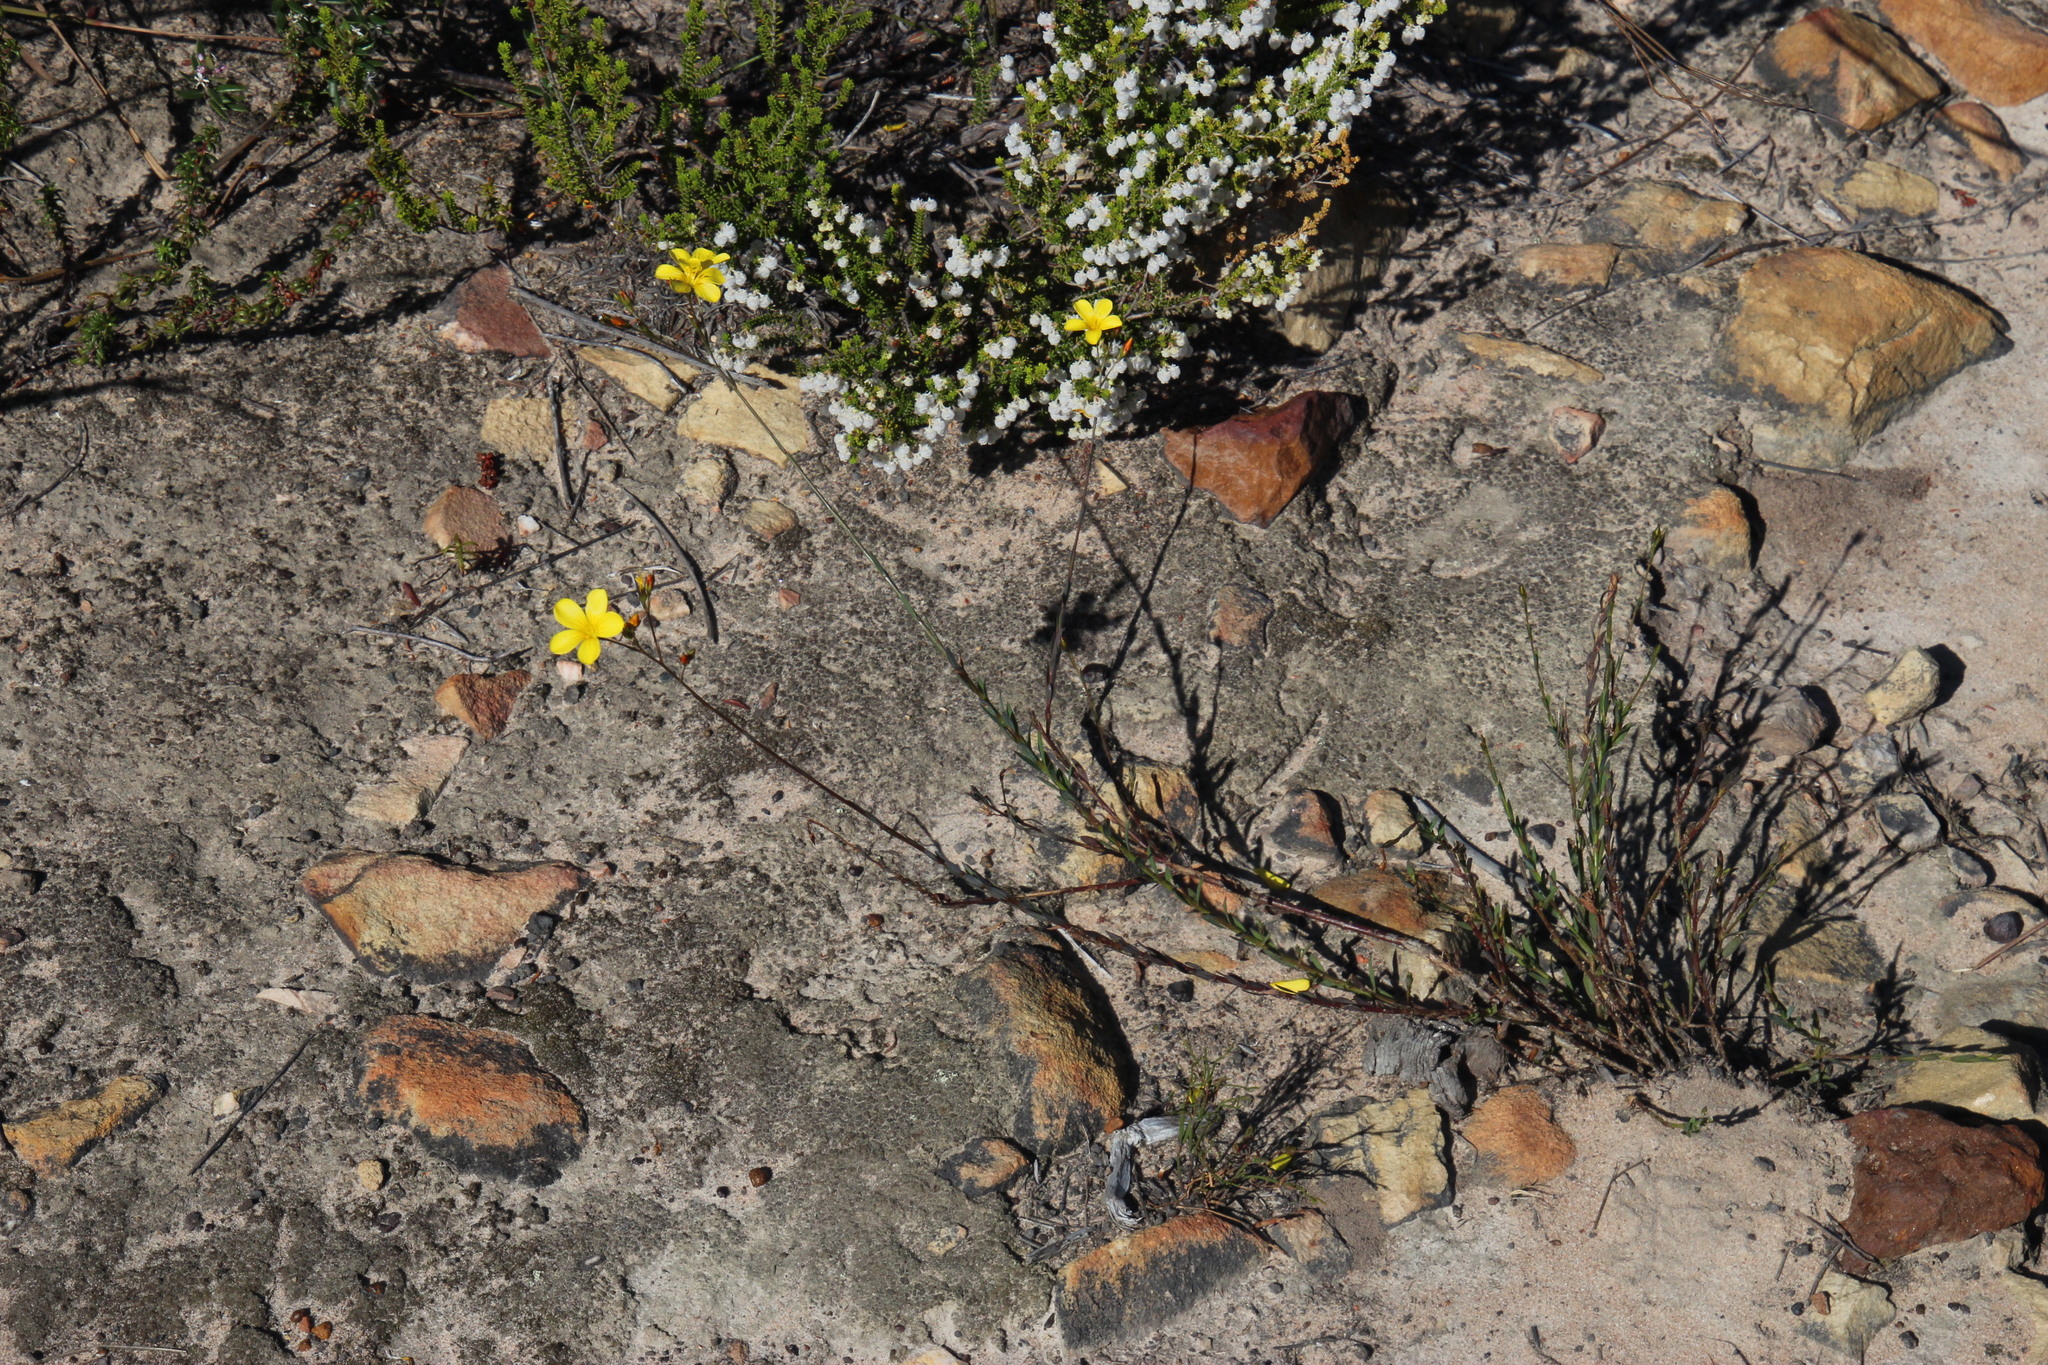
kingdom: Plantae
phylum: Tracheophyta
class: Magnoliopsida
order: Malpighiales
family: Linaceae
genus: Linum
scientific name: Linum africanum
